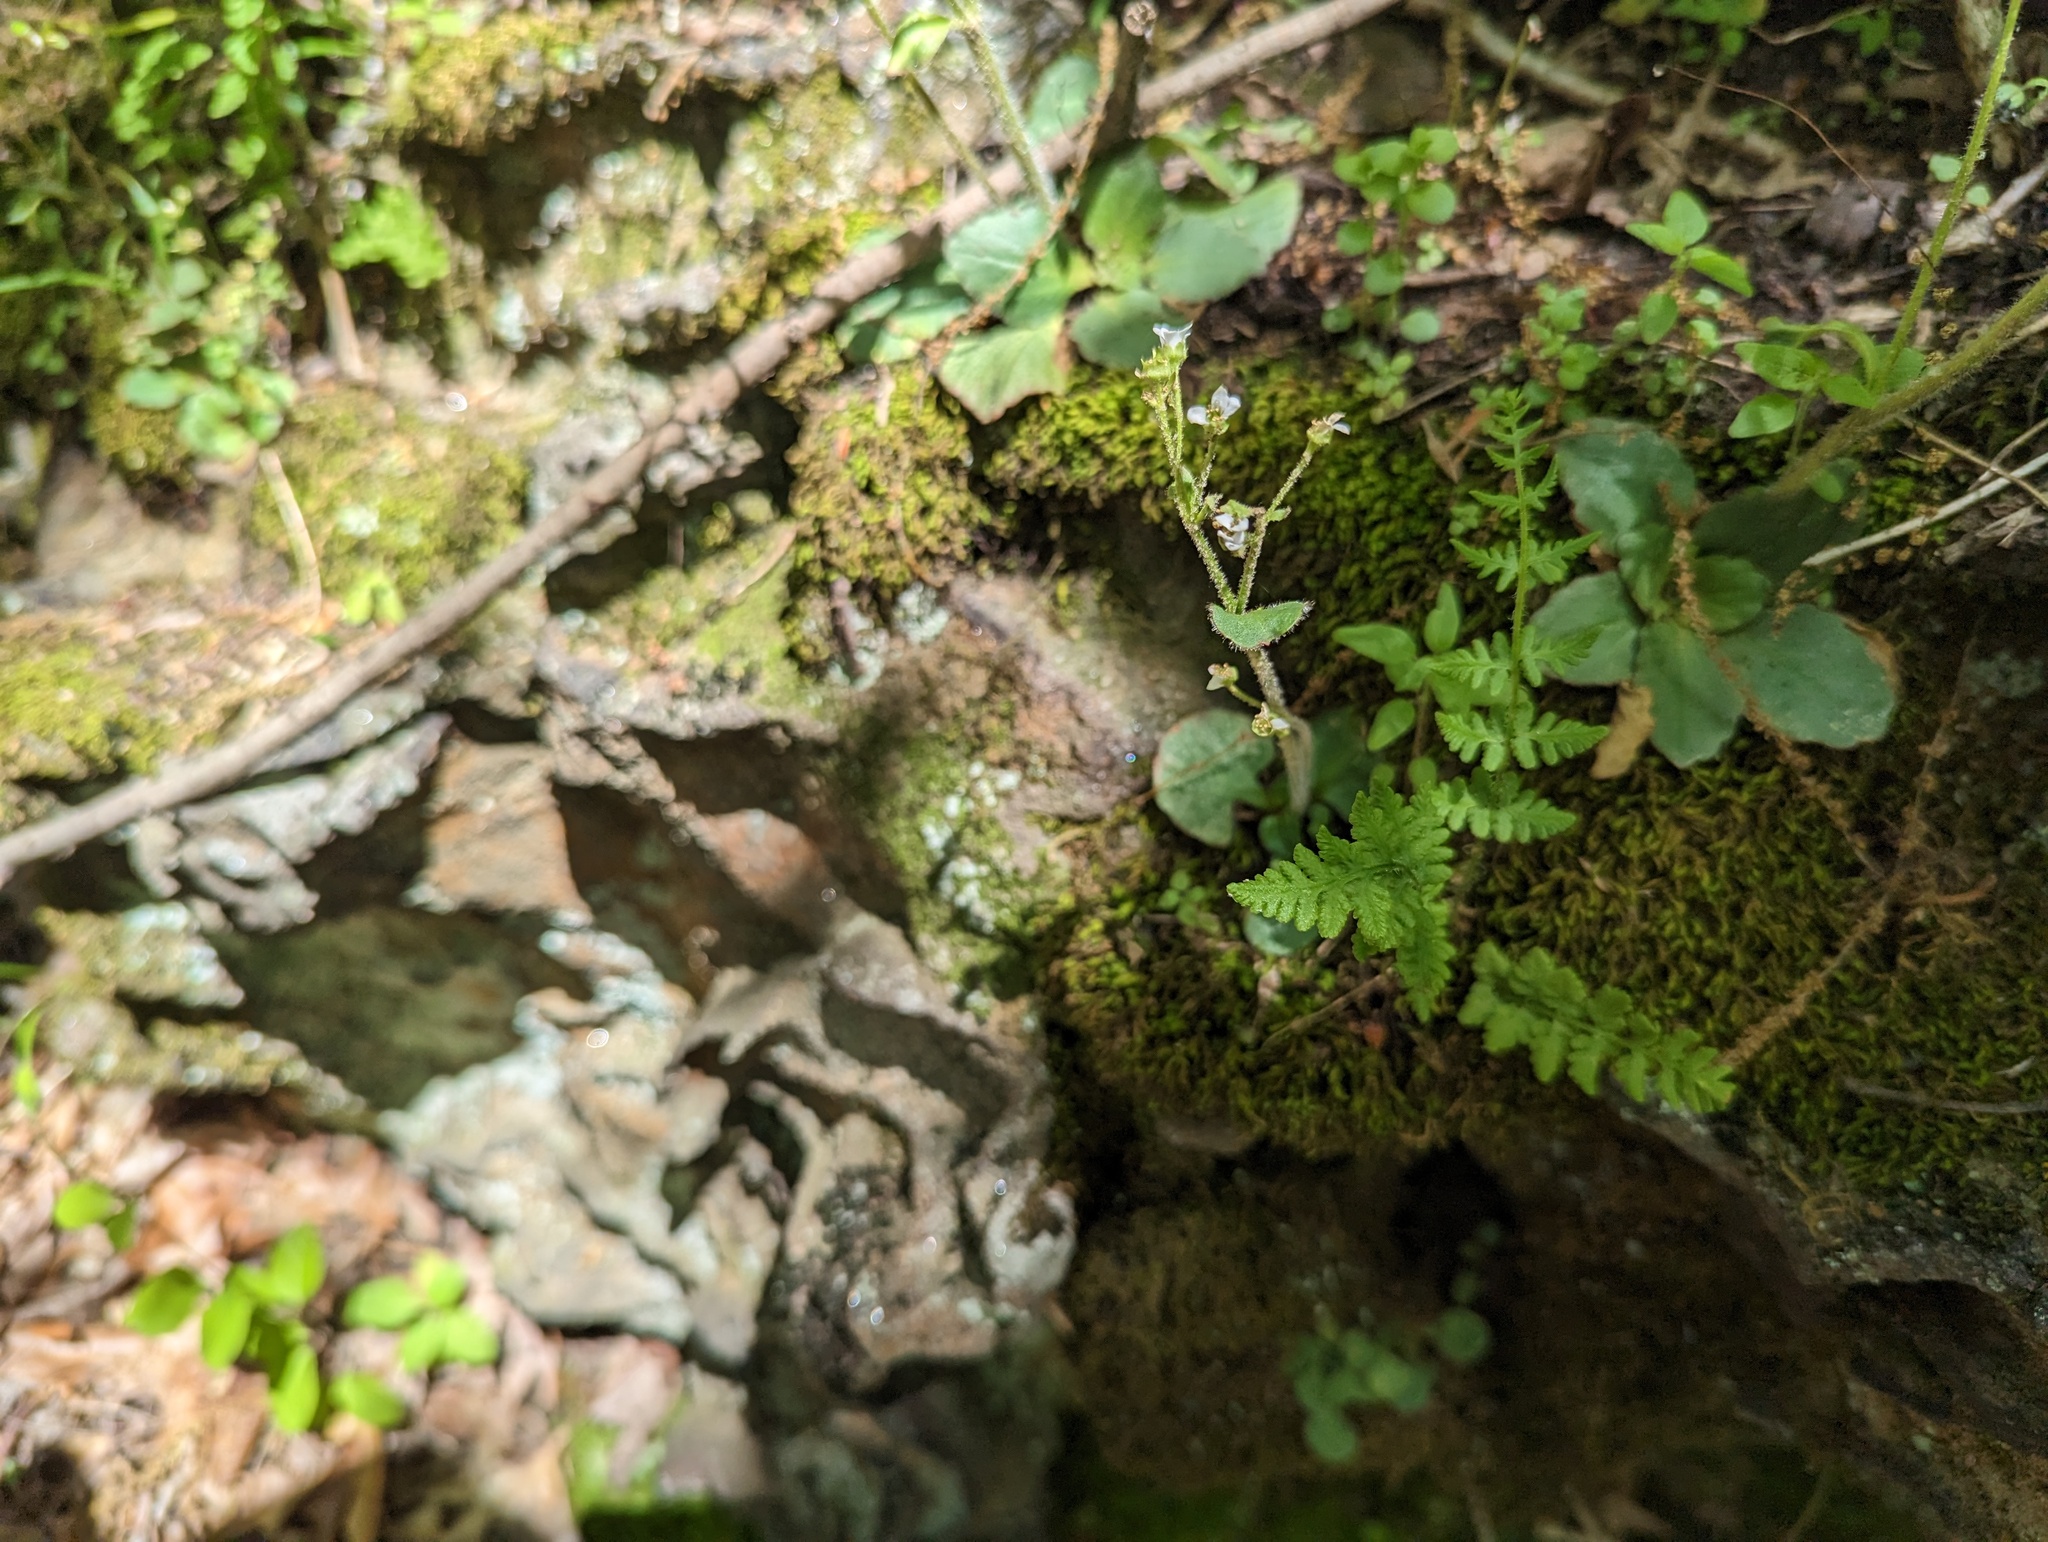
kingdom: Plantae
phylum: Tracheophyta
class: Magnoliopsida
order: Saxifragales
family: Saxifragaceae
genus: Micranthes
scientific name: Micranthes virginiensis
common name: Early saxifrage
